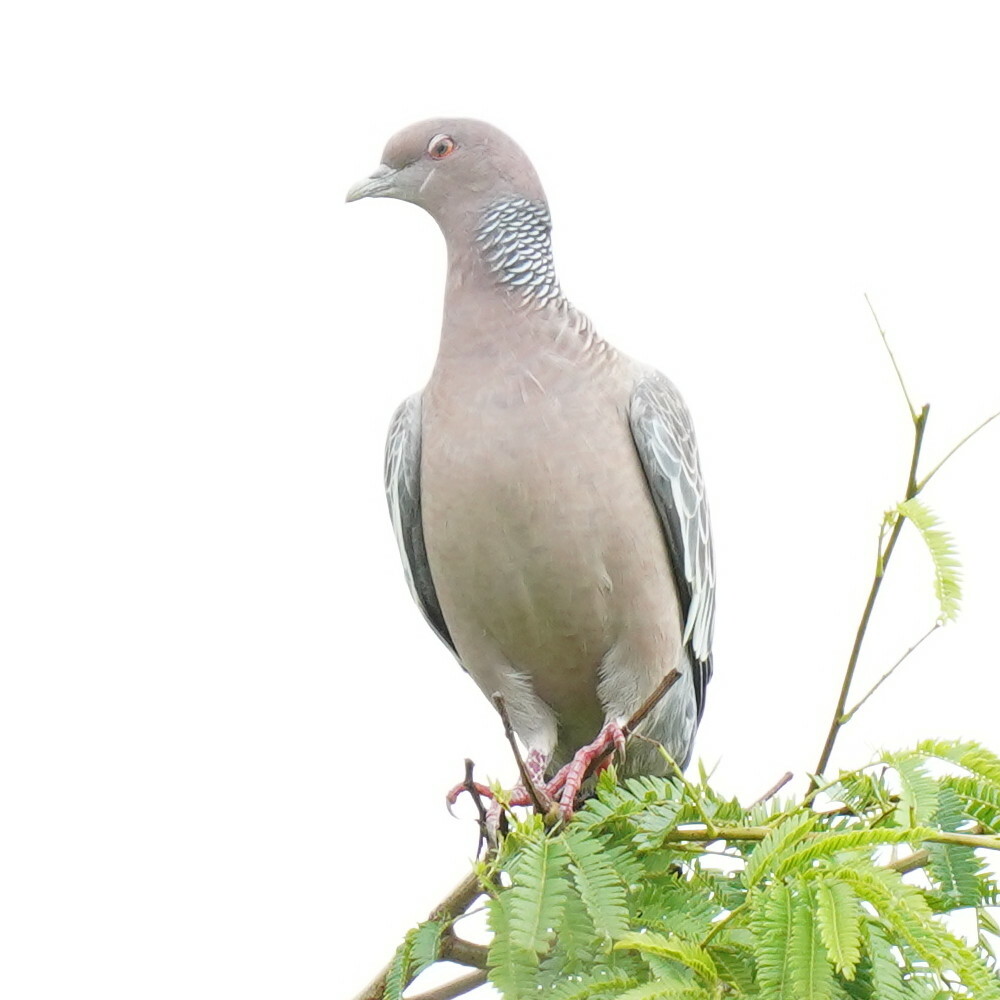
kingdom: Animalia
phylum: Chordata
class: Aves
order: Columbiformes
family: Columbidae
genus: Patagioenas
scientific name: Patagioenas picazuro
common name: Picazuro pigeon
